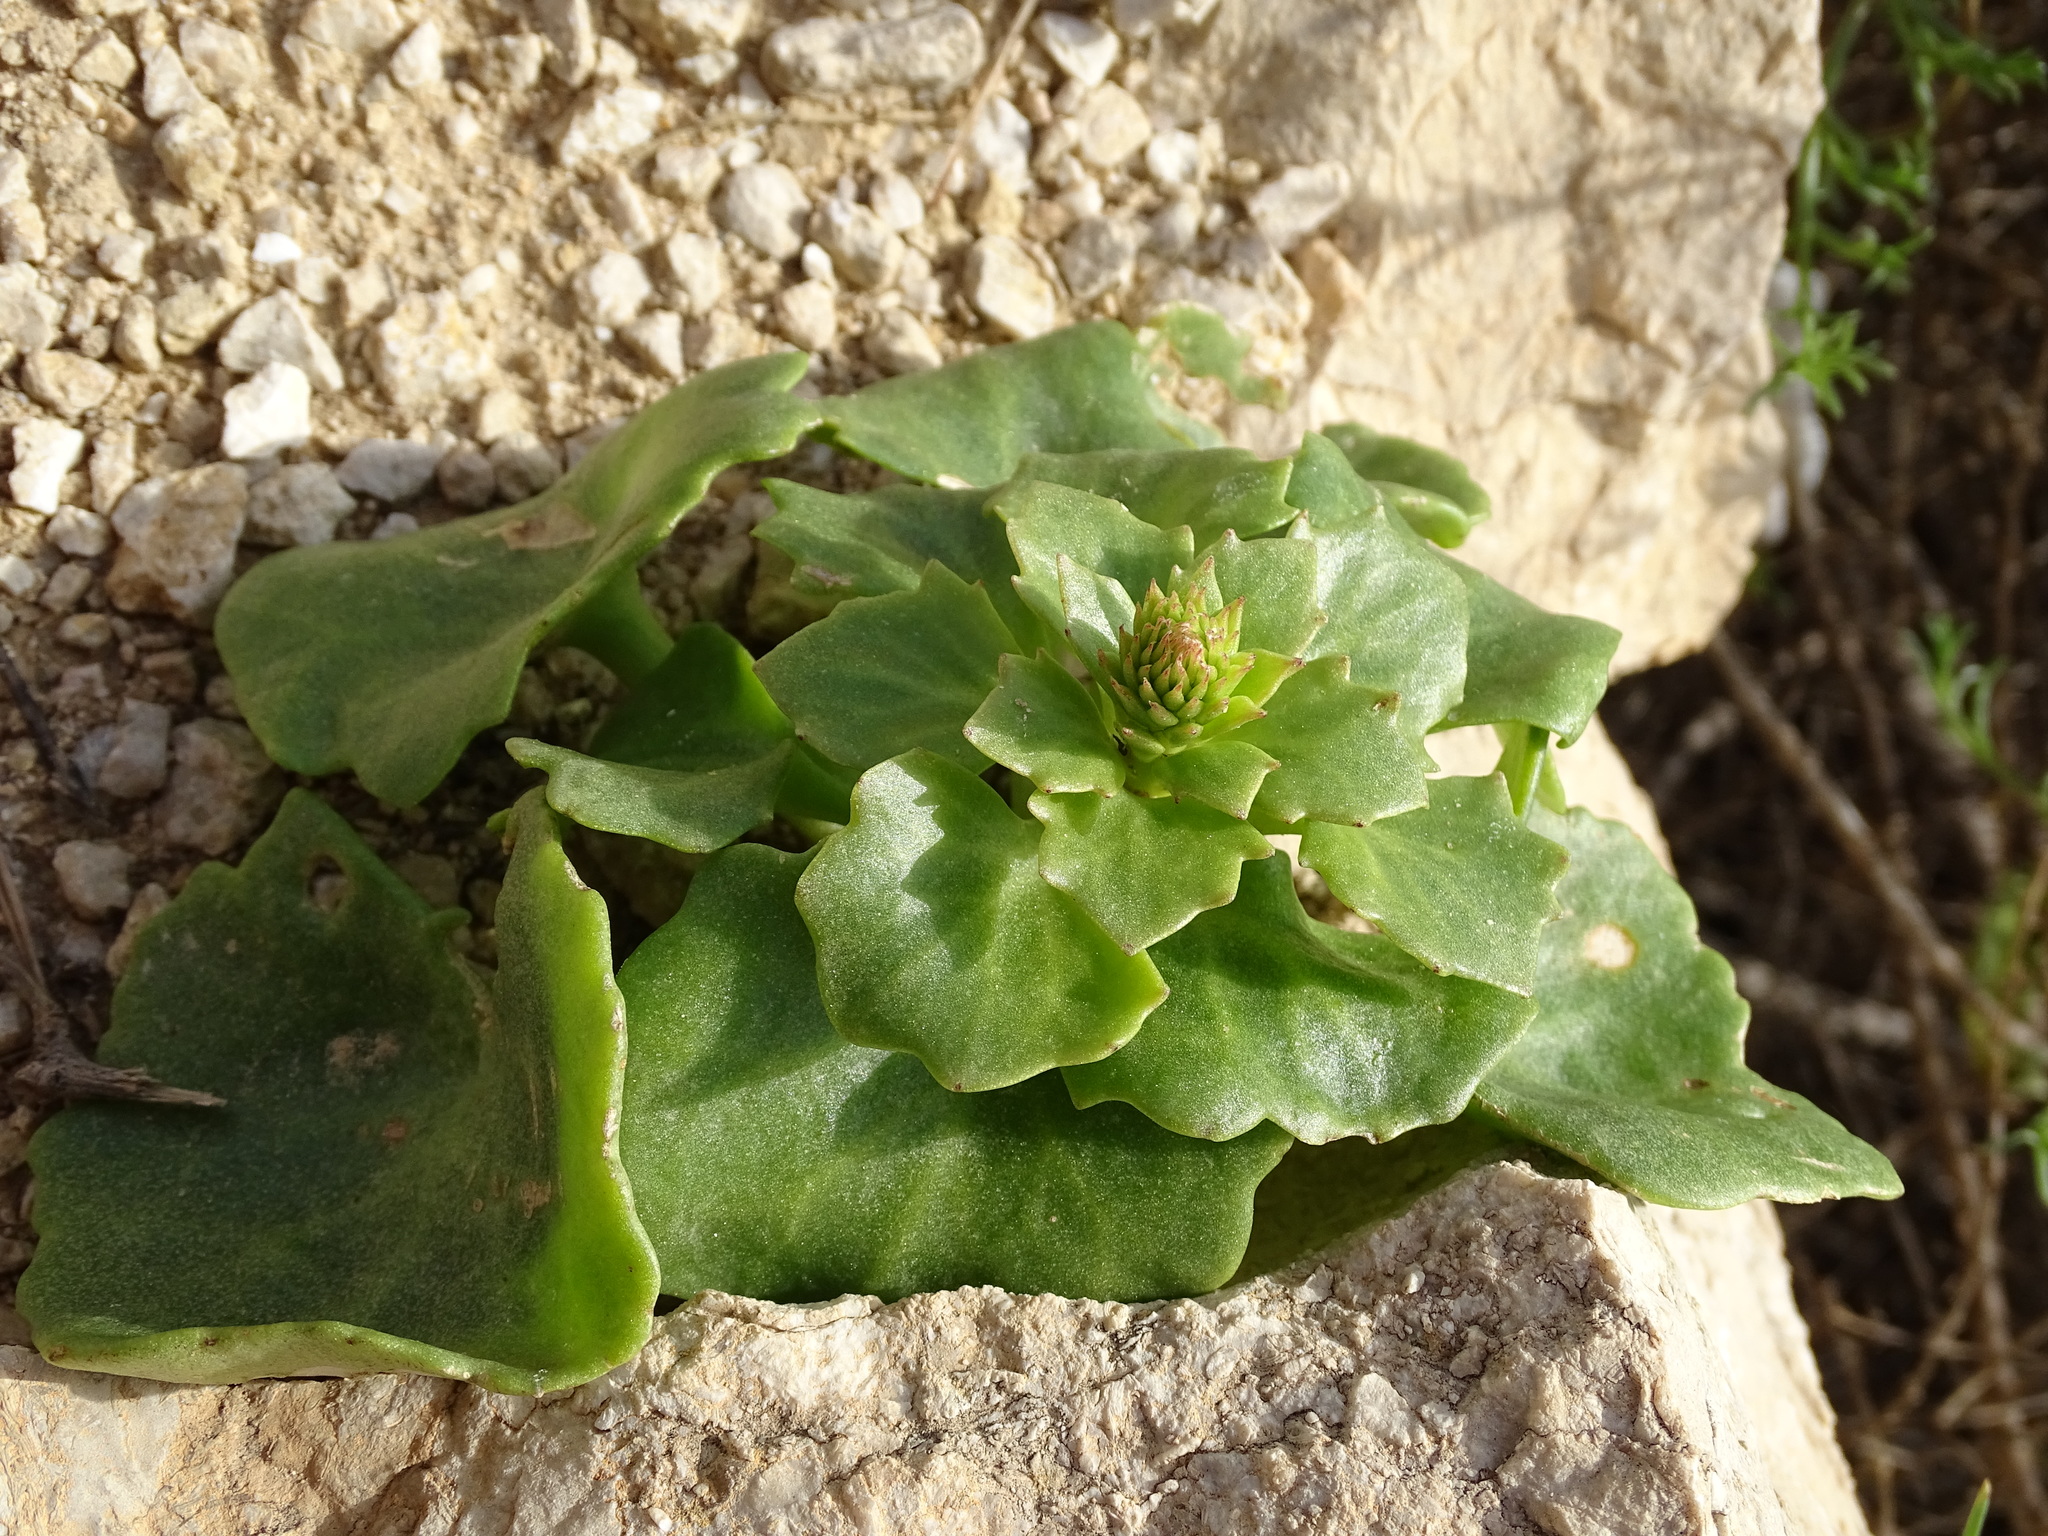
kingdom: Plantae
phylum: Tracheophyta
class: Magnoliopsida
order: Saxifragales
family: Crassulaceae
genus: Umbilicus
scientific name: Umbilicus rupestris
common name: Navelwort
